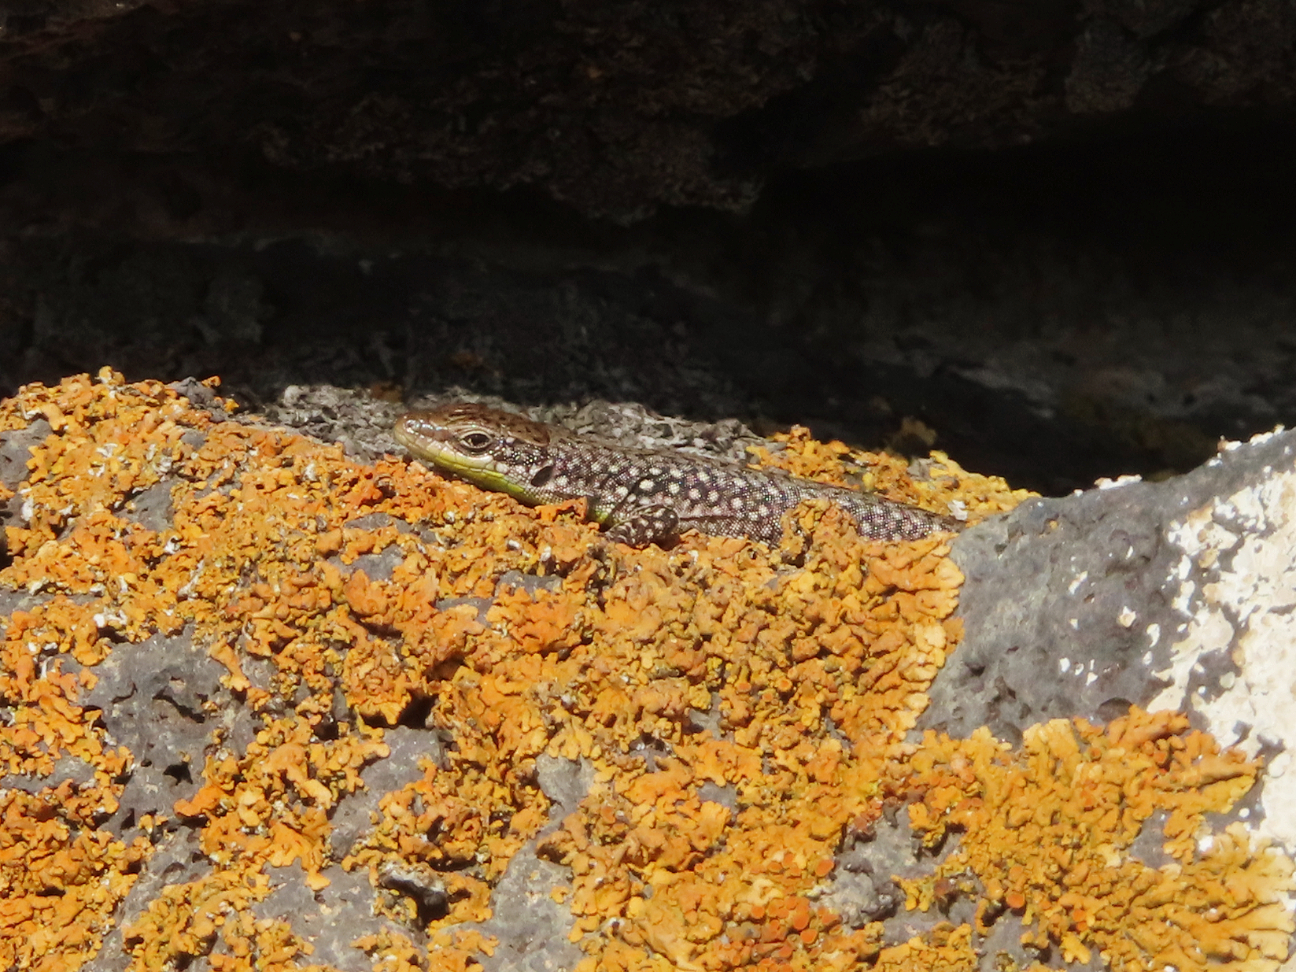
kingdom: Animalia
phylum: Chordata
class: Squamata
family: Lacertidae
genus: Darevskia
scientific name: Darevskia
